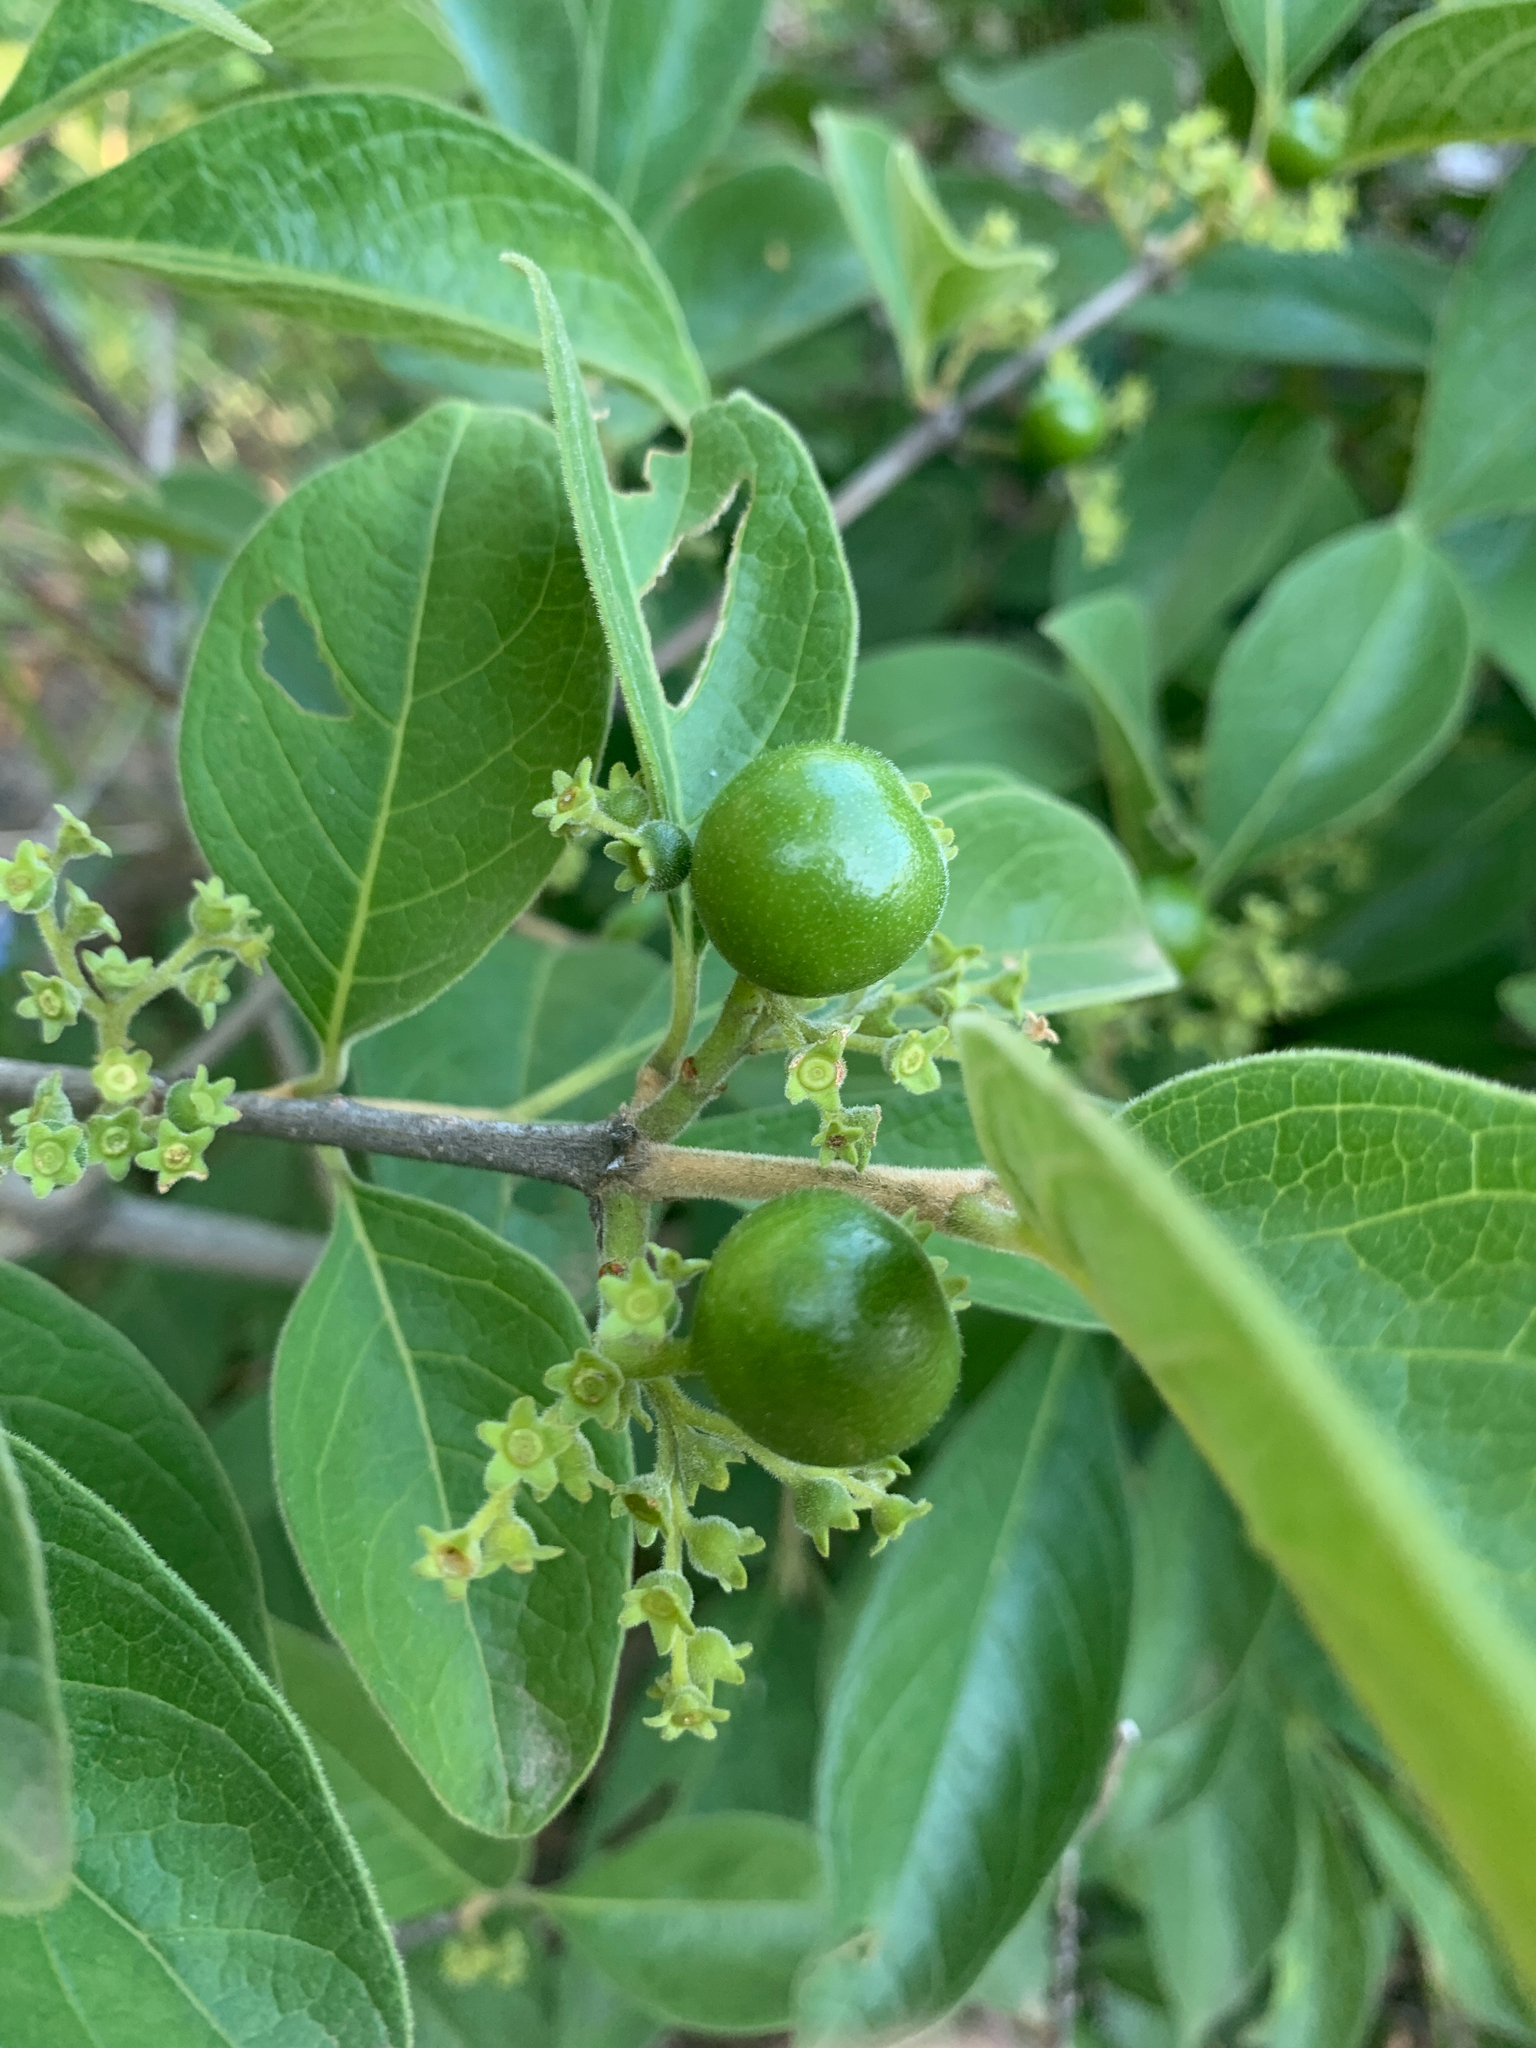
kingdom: Plantae
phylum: Tracheophyta
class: Magnoliopsida
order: Gentianales
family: Rubiaceae
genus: Vangueria
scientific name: Vangueria infausta
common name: Medlar
